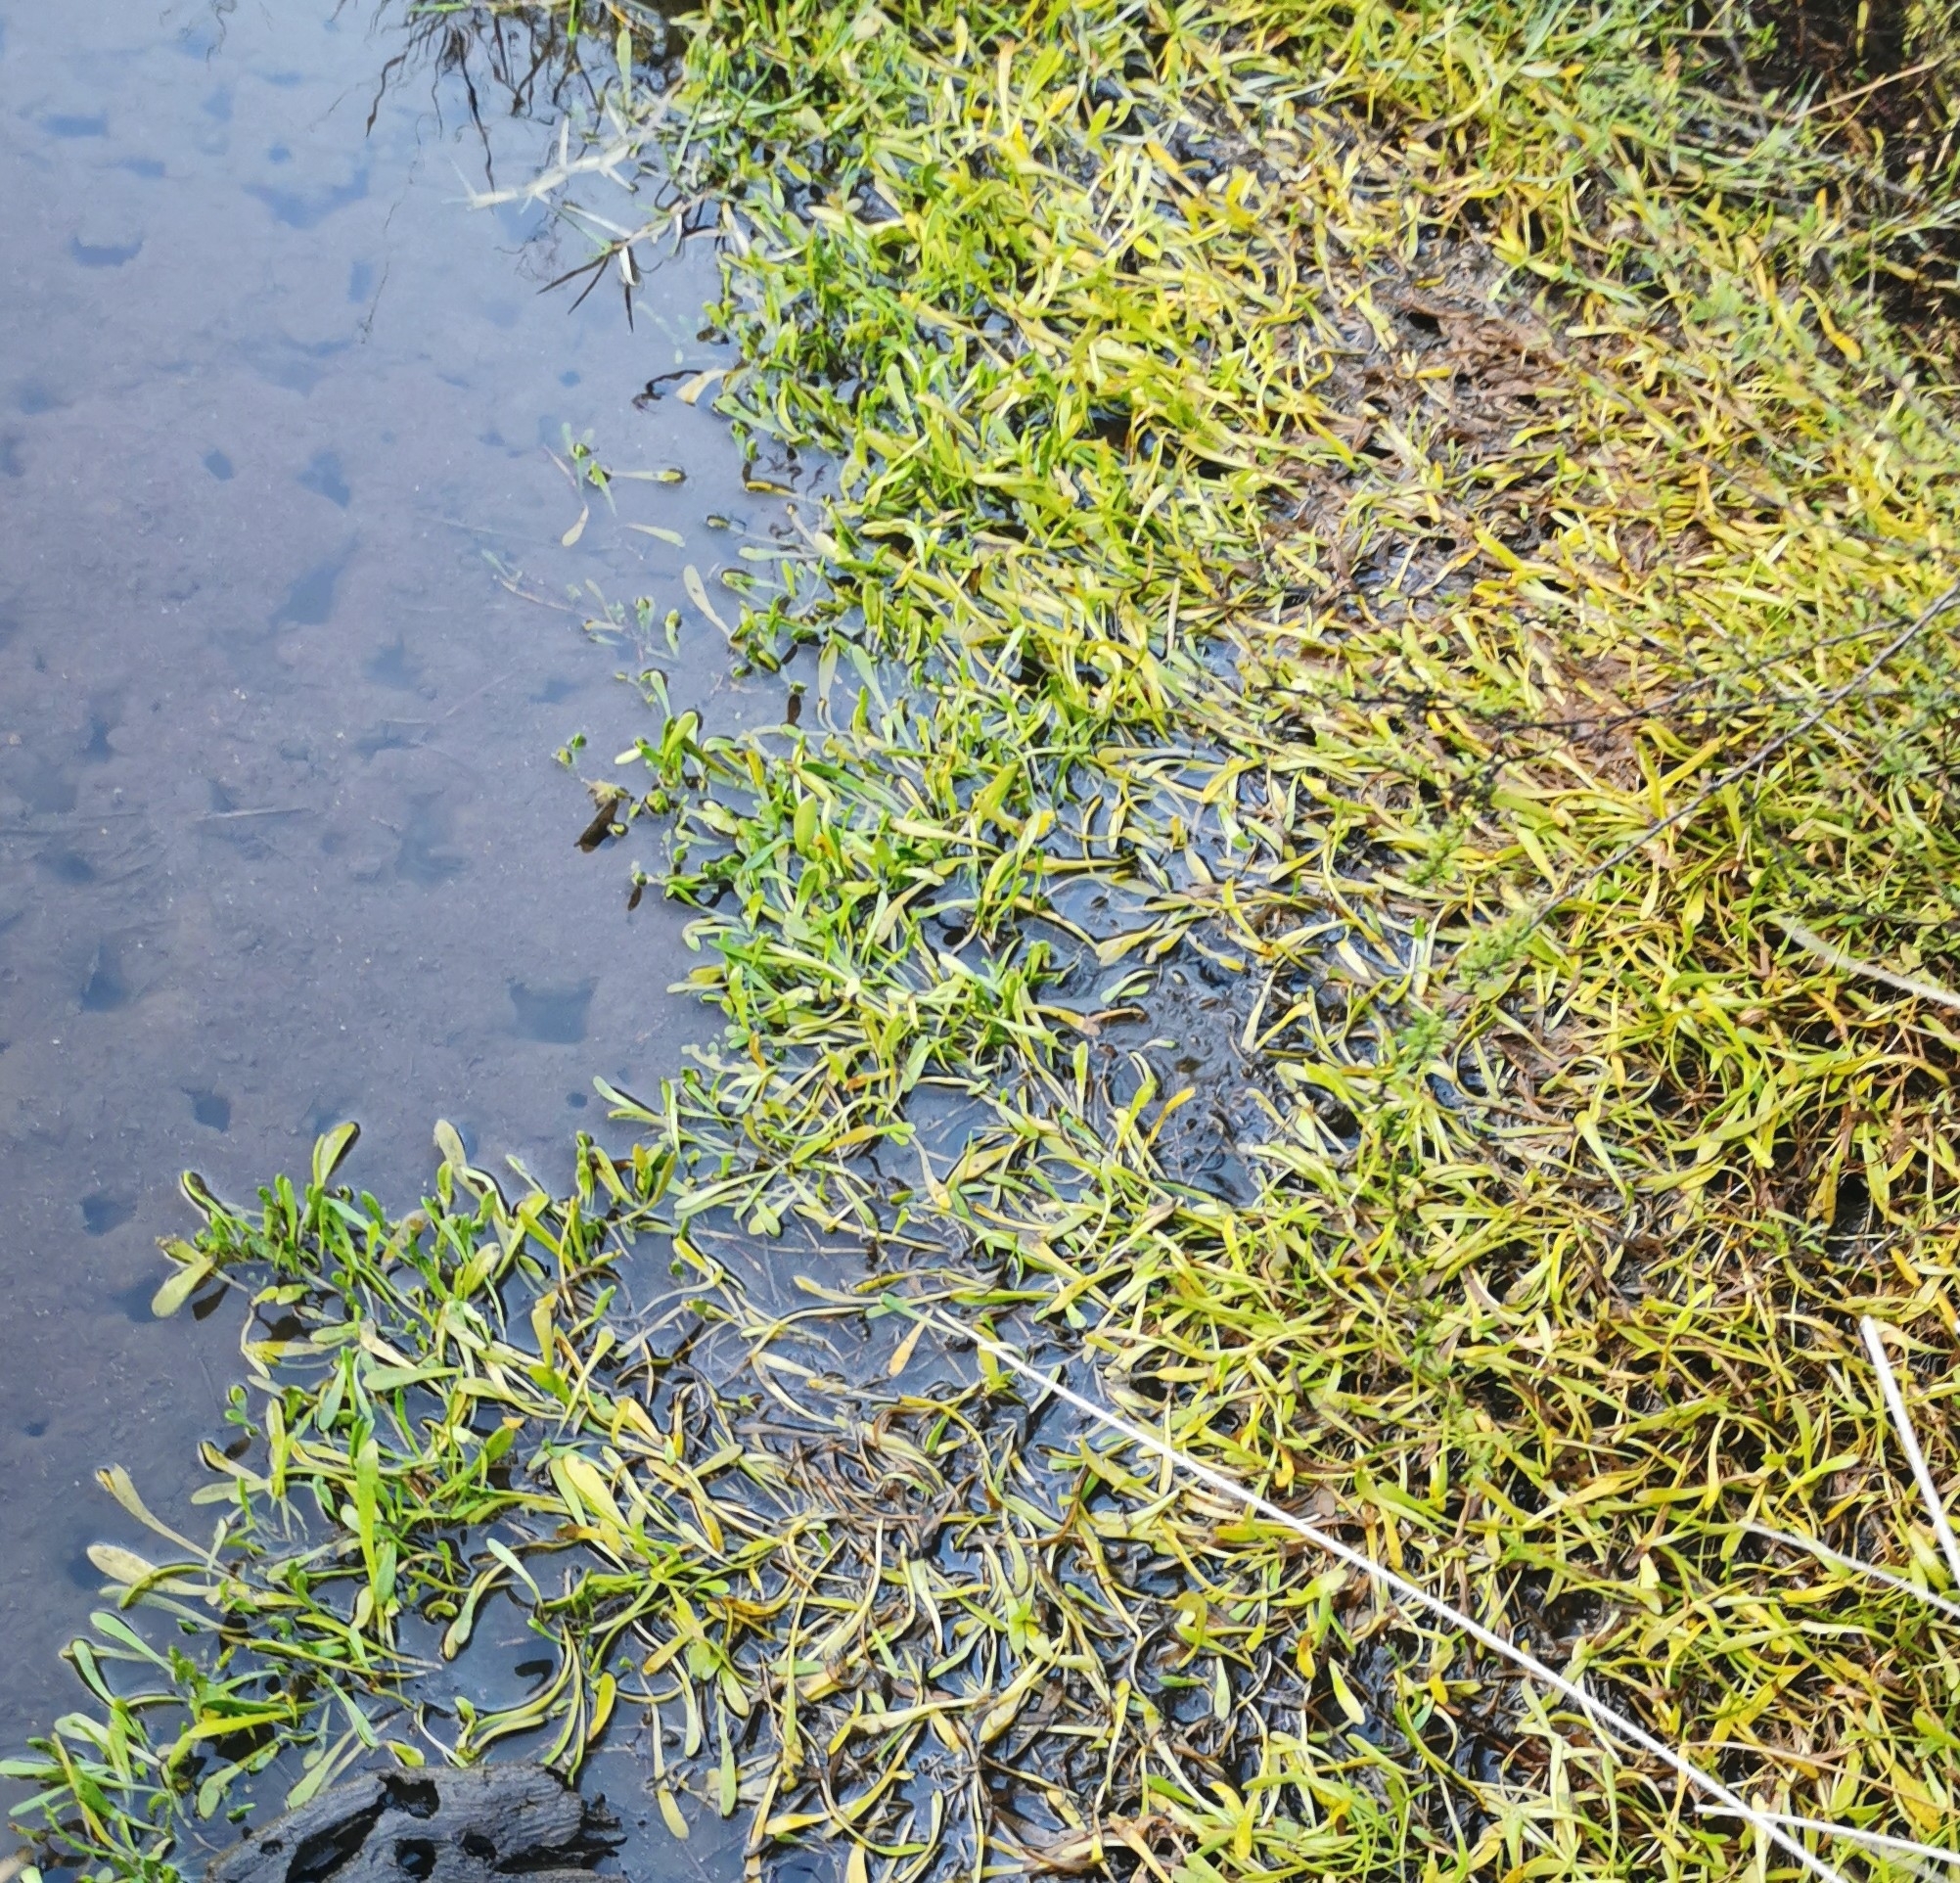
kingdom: Plantae
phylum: Tracheophyta
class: Magnoliopsida
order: Asterales
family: Goodeniaceae
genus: Goodenia
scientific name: Goodenia radicans
